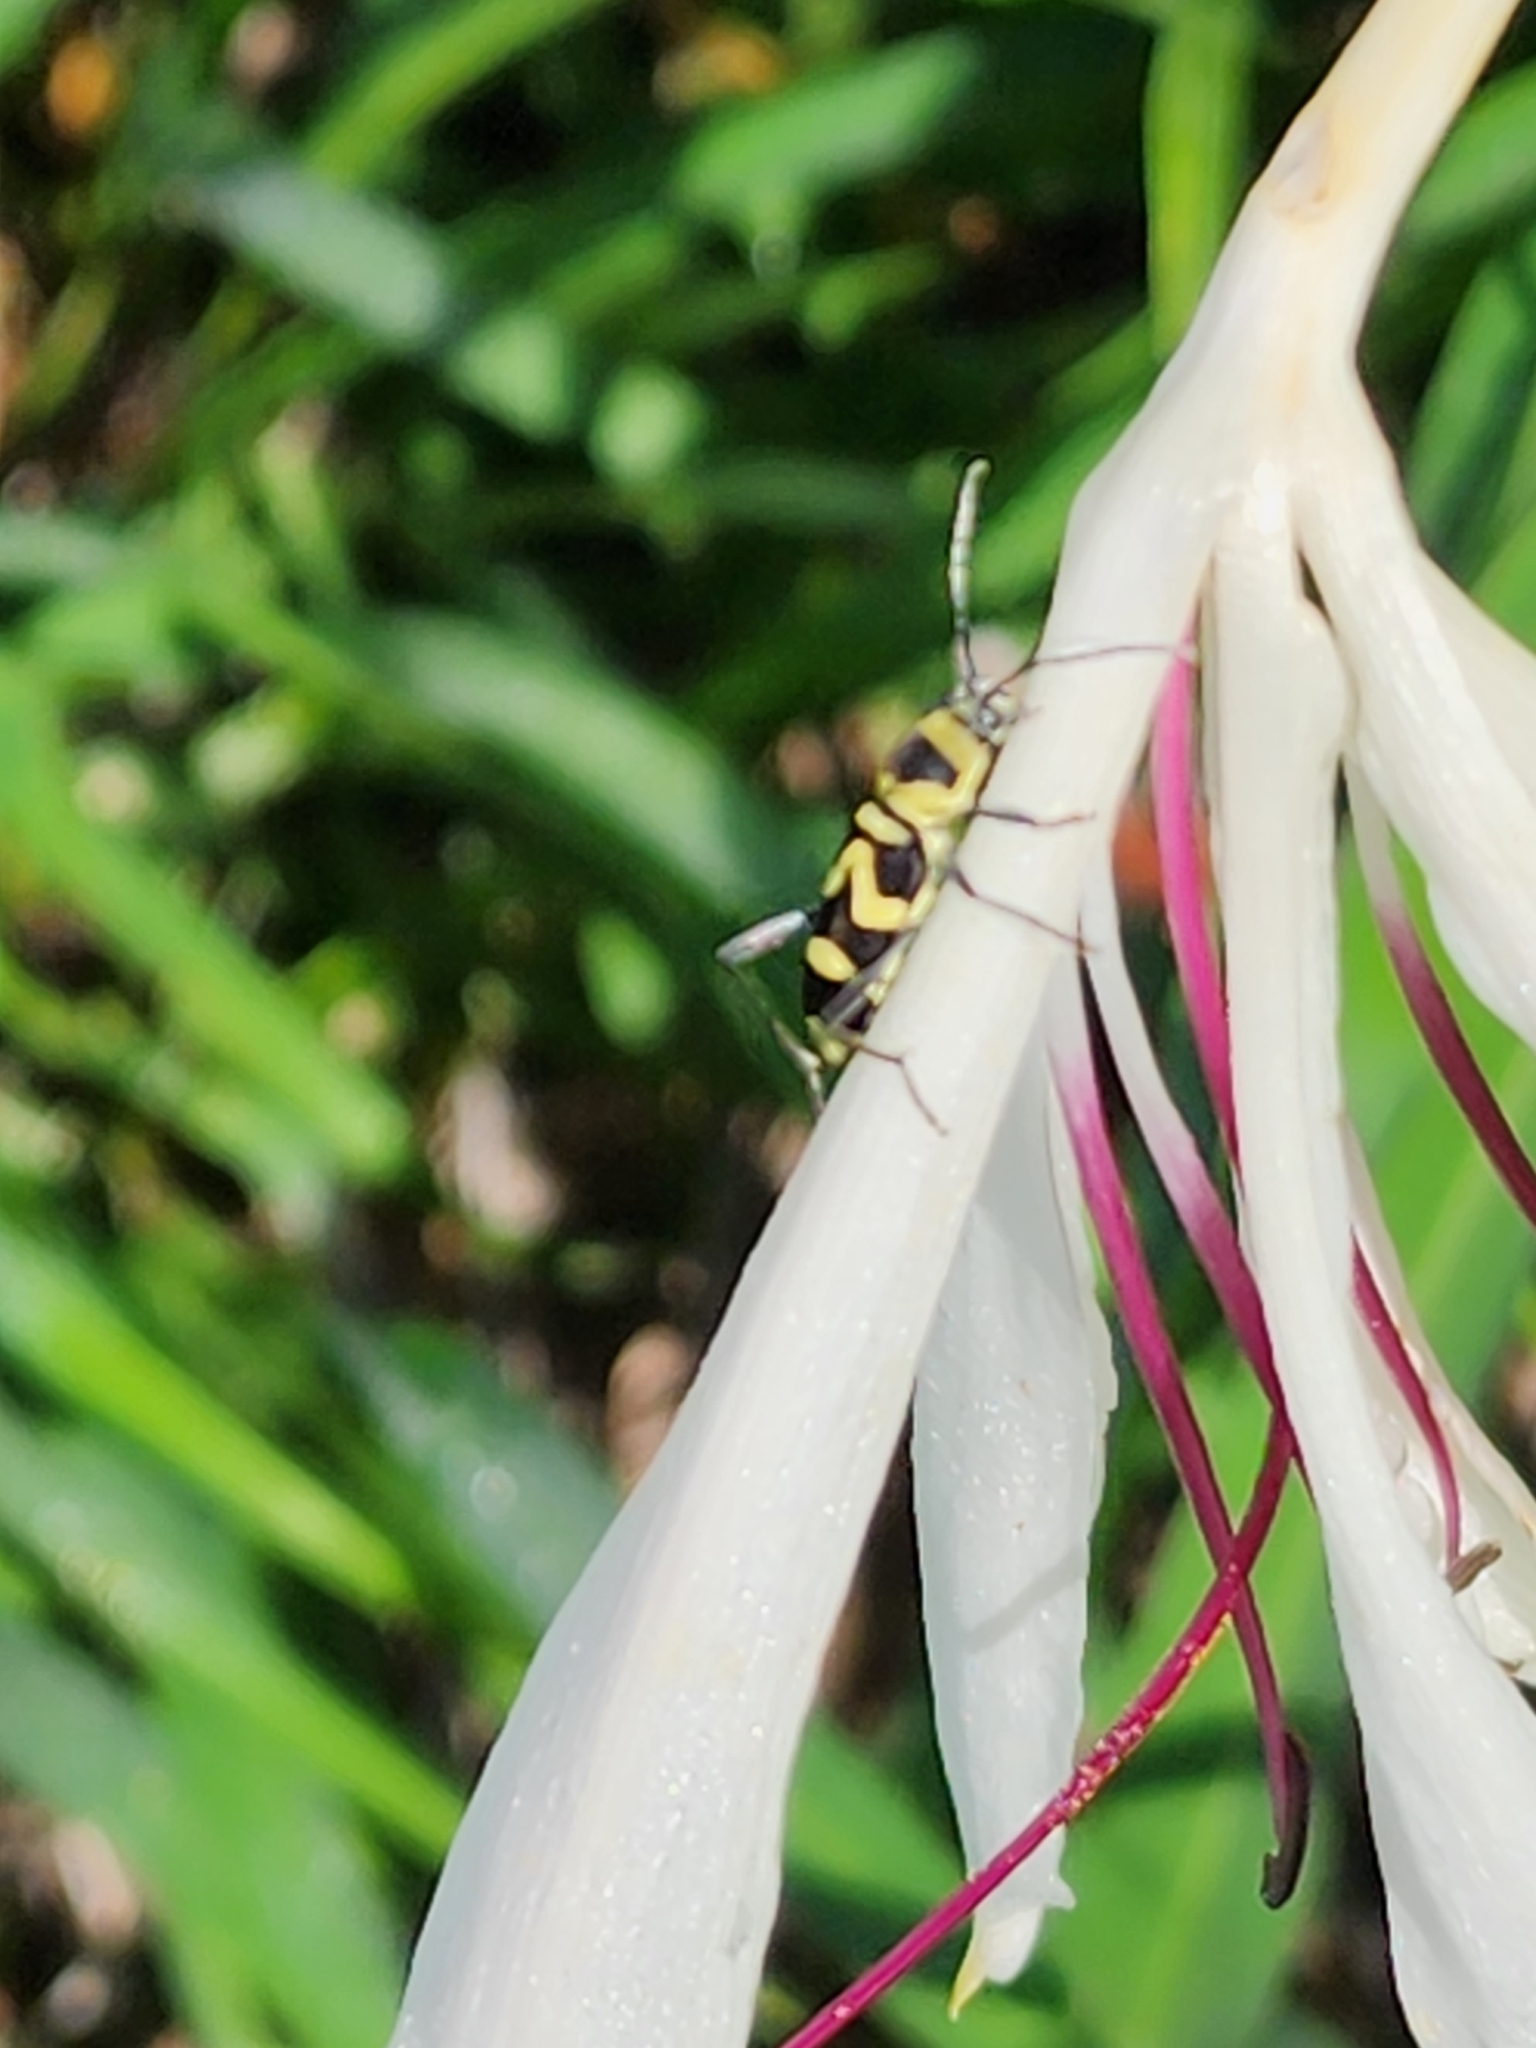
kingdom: Animalia
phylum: Arthropoda
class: Insecta
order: Coleoptera
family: Cerambycidae
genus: Clytus
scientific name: Clytus curtisi
